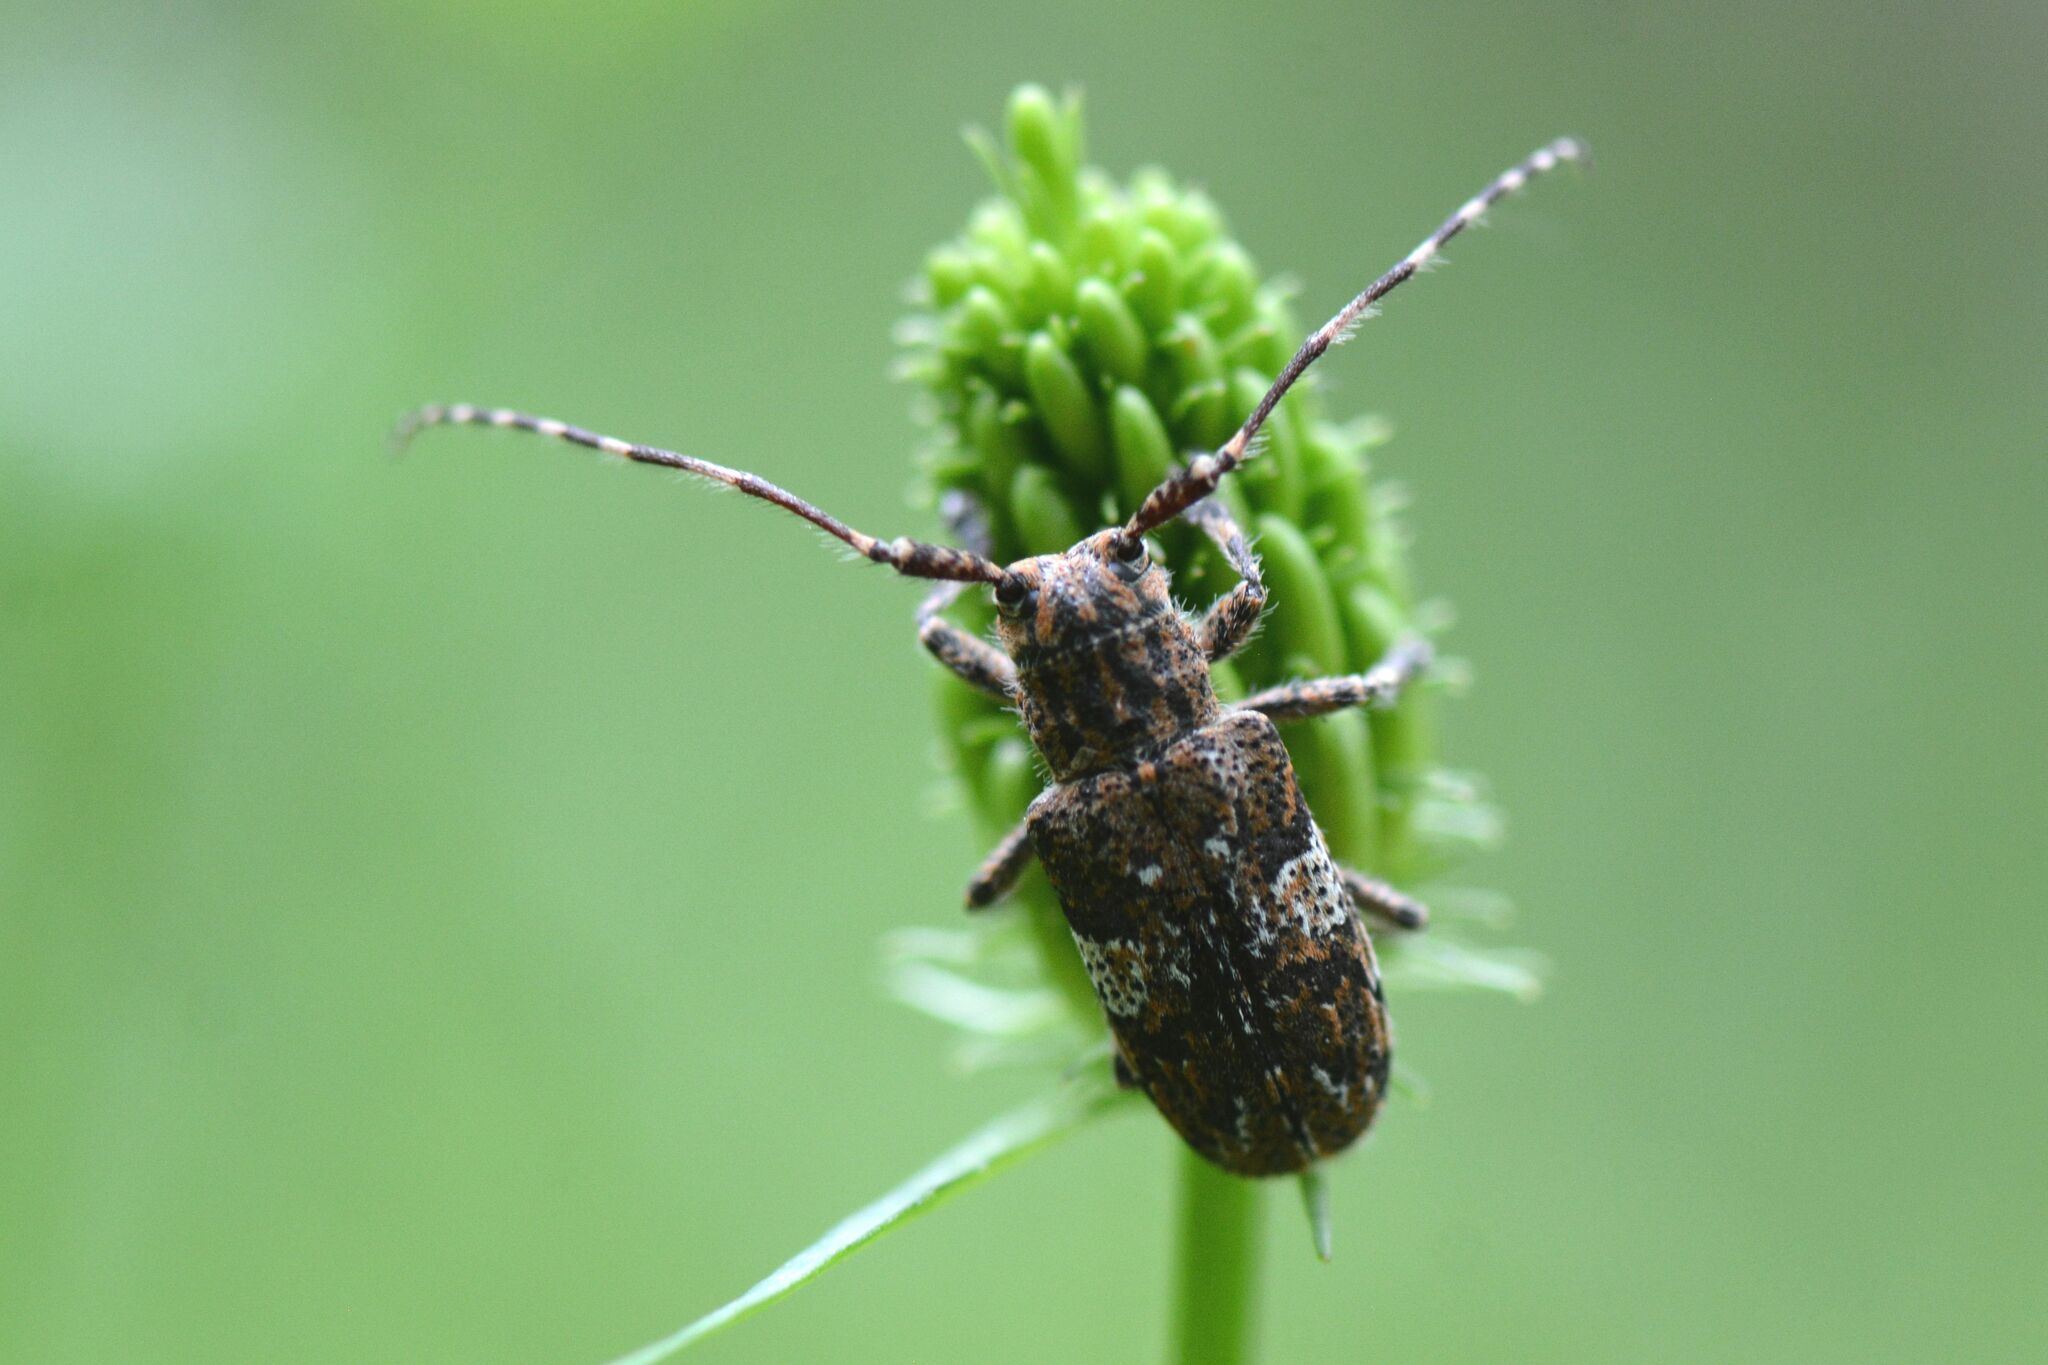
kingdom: Animalia
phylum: Arthropoda
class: Insecta
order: Coleoptera
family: Cerambycidae
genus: Mesosa
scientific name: Mesosa nebulosa
